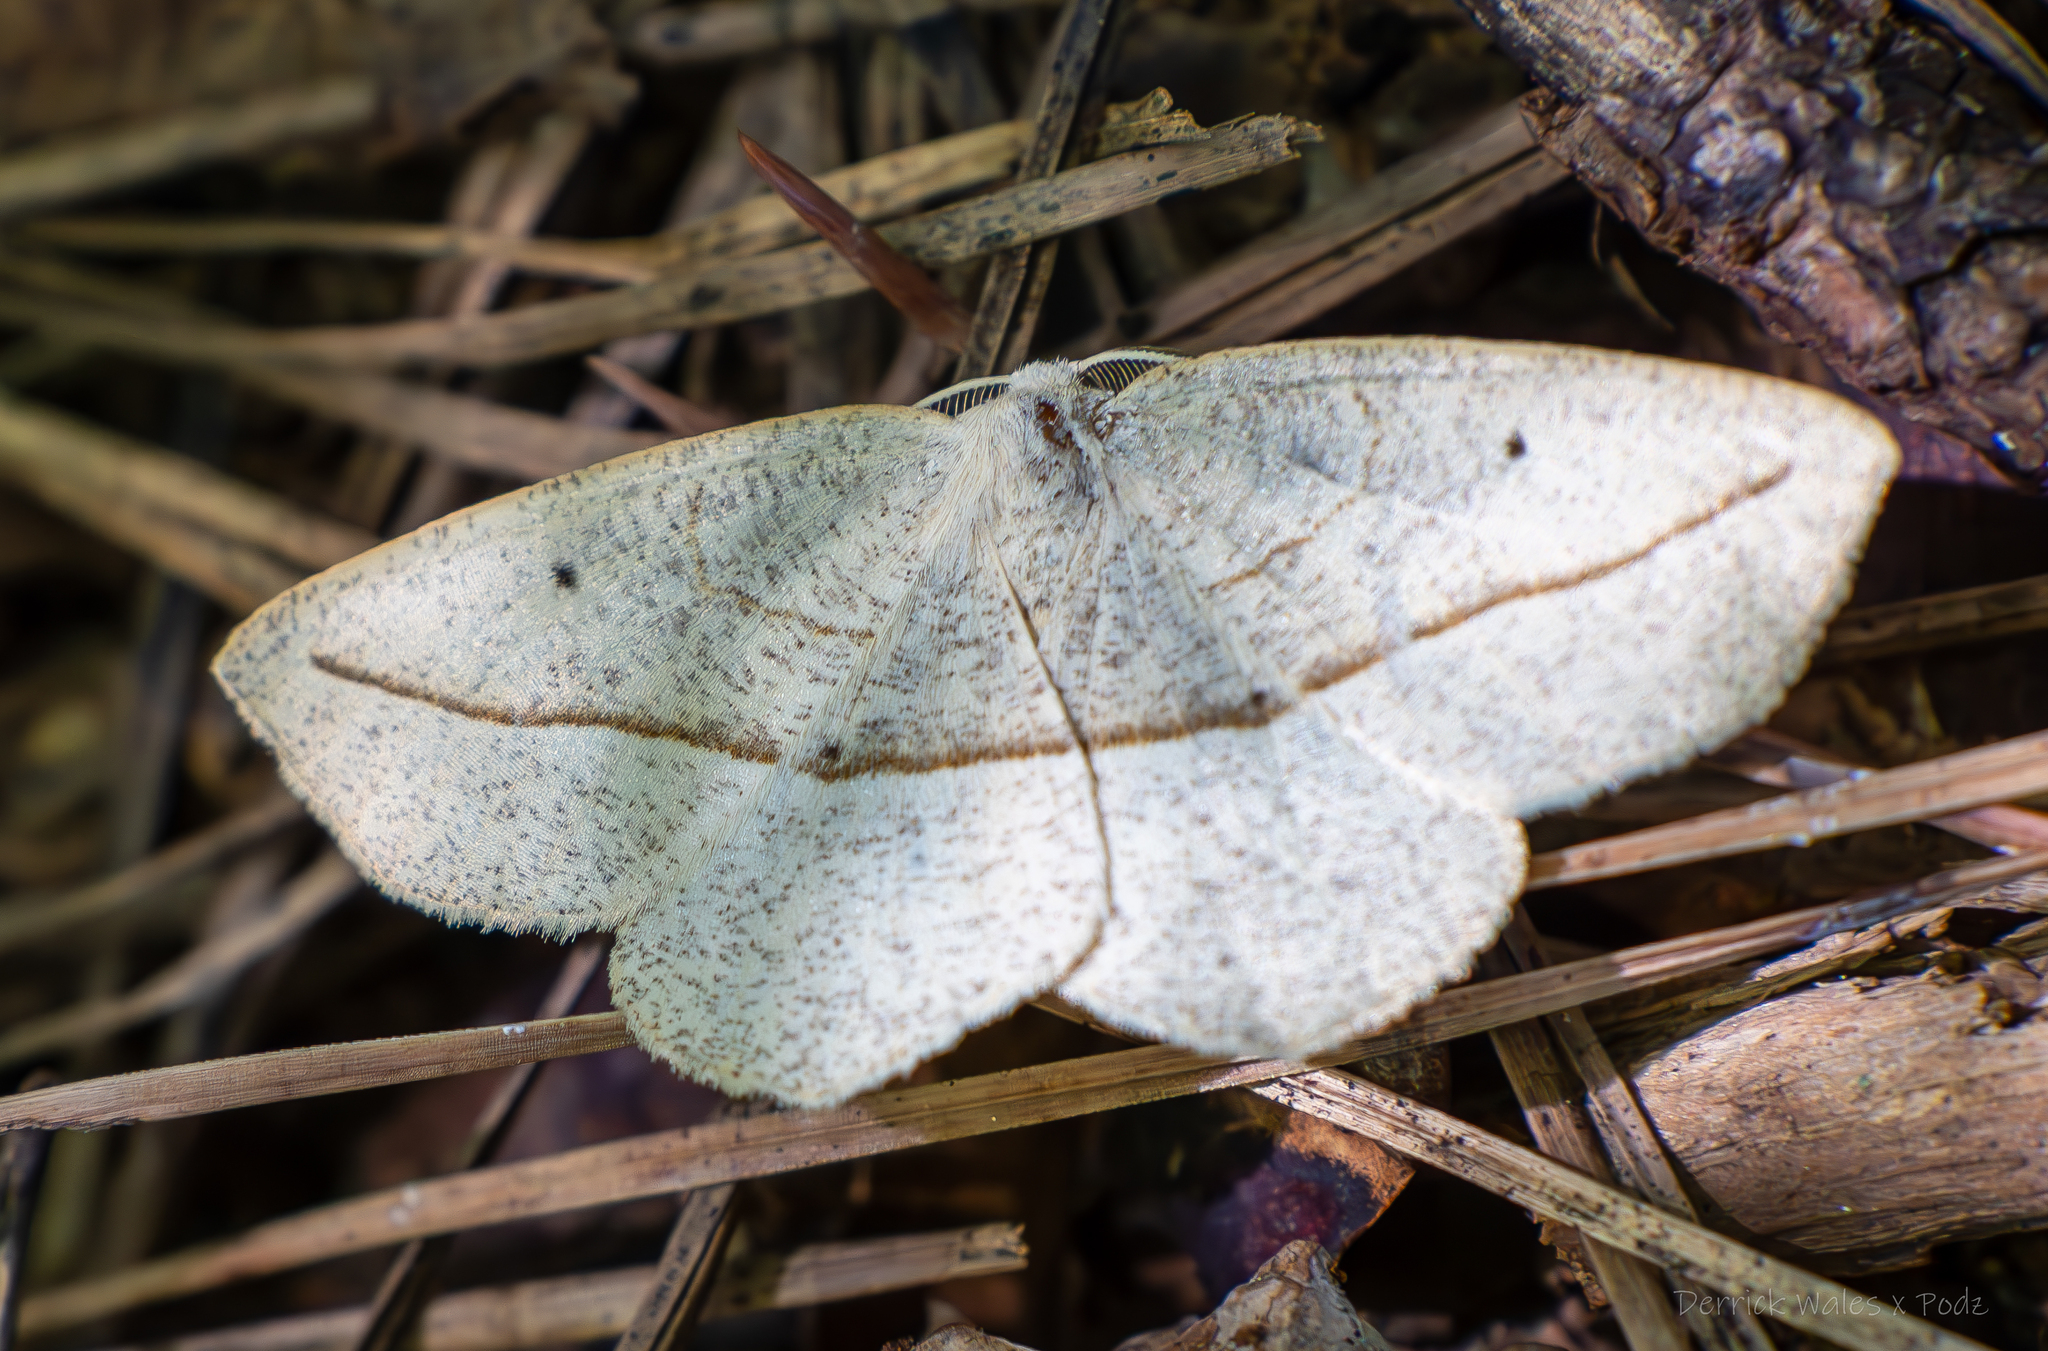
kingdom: Animalia
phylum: Arthropoda
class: Insecta
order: Lepidoptera
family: Geometridae
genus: Eusarca
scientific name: Eusarca confusaria
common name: Confused eusarca
